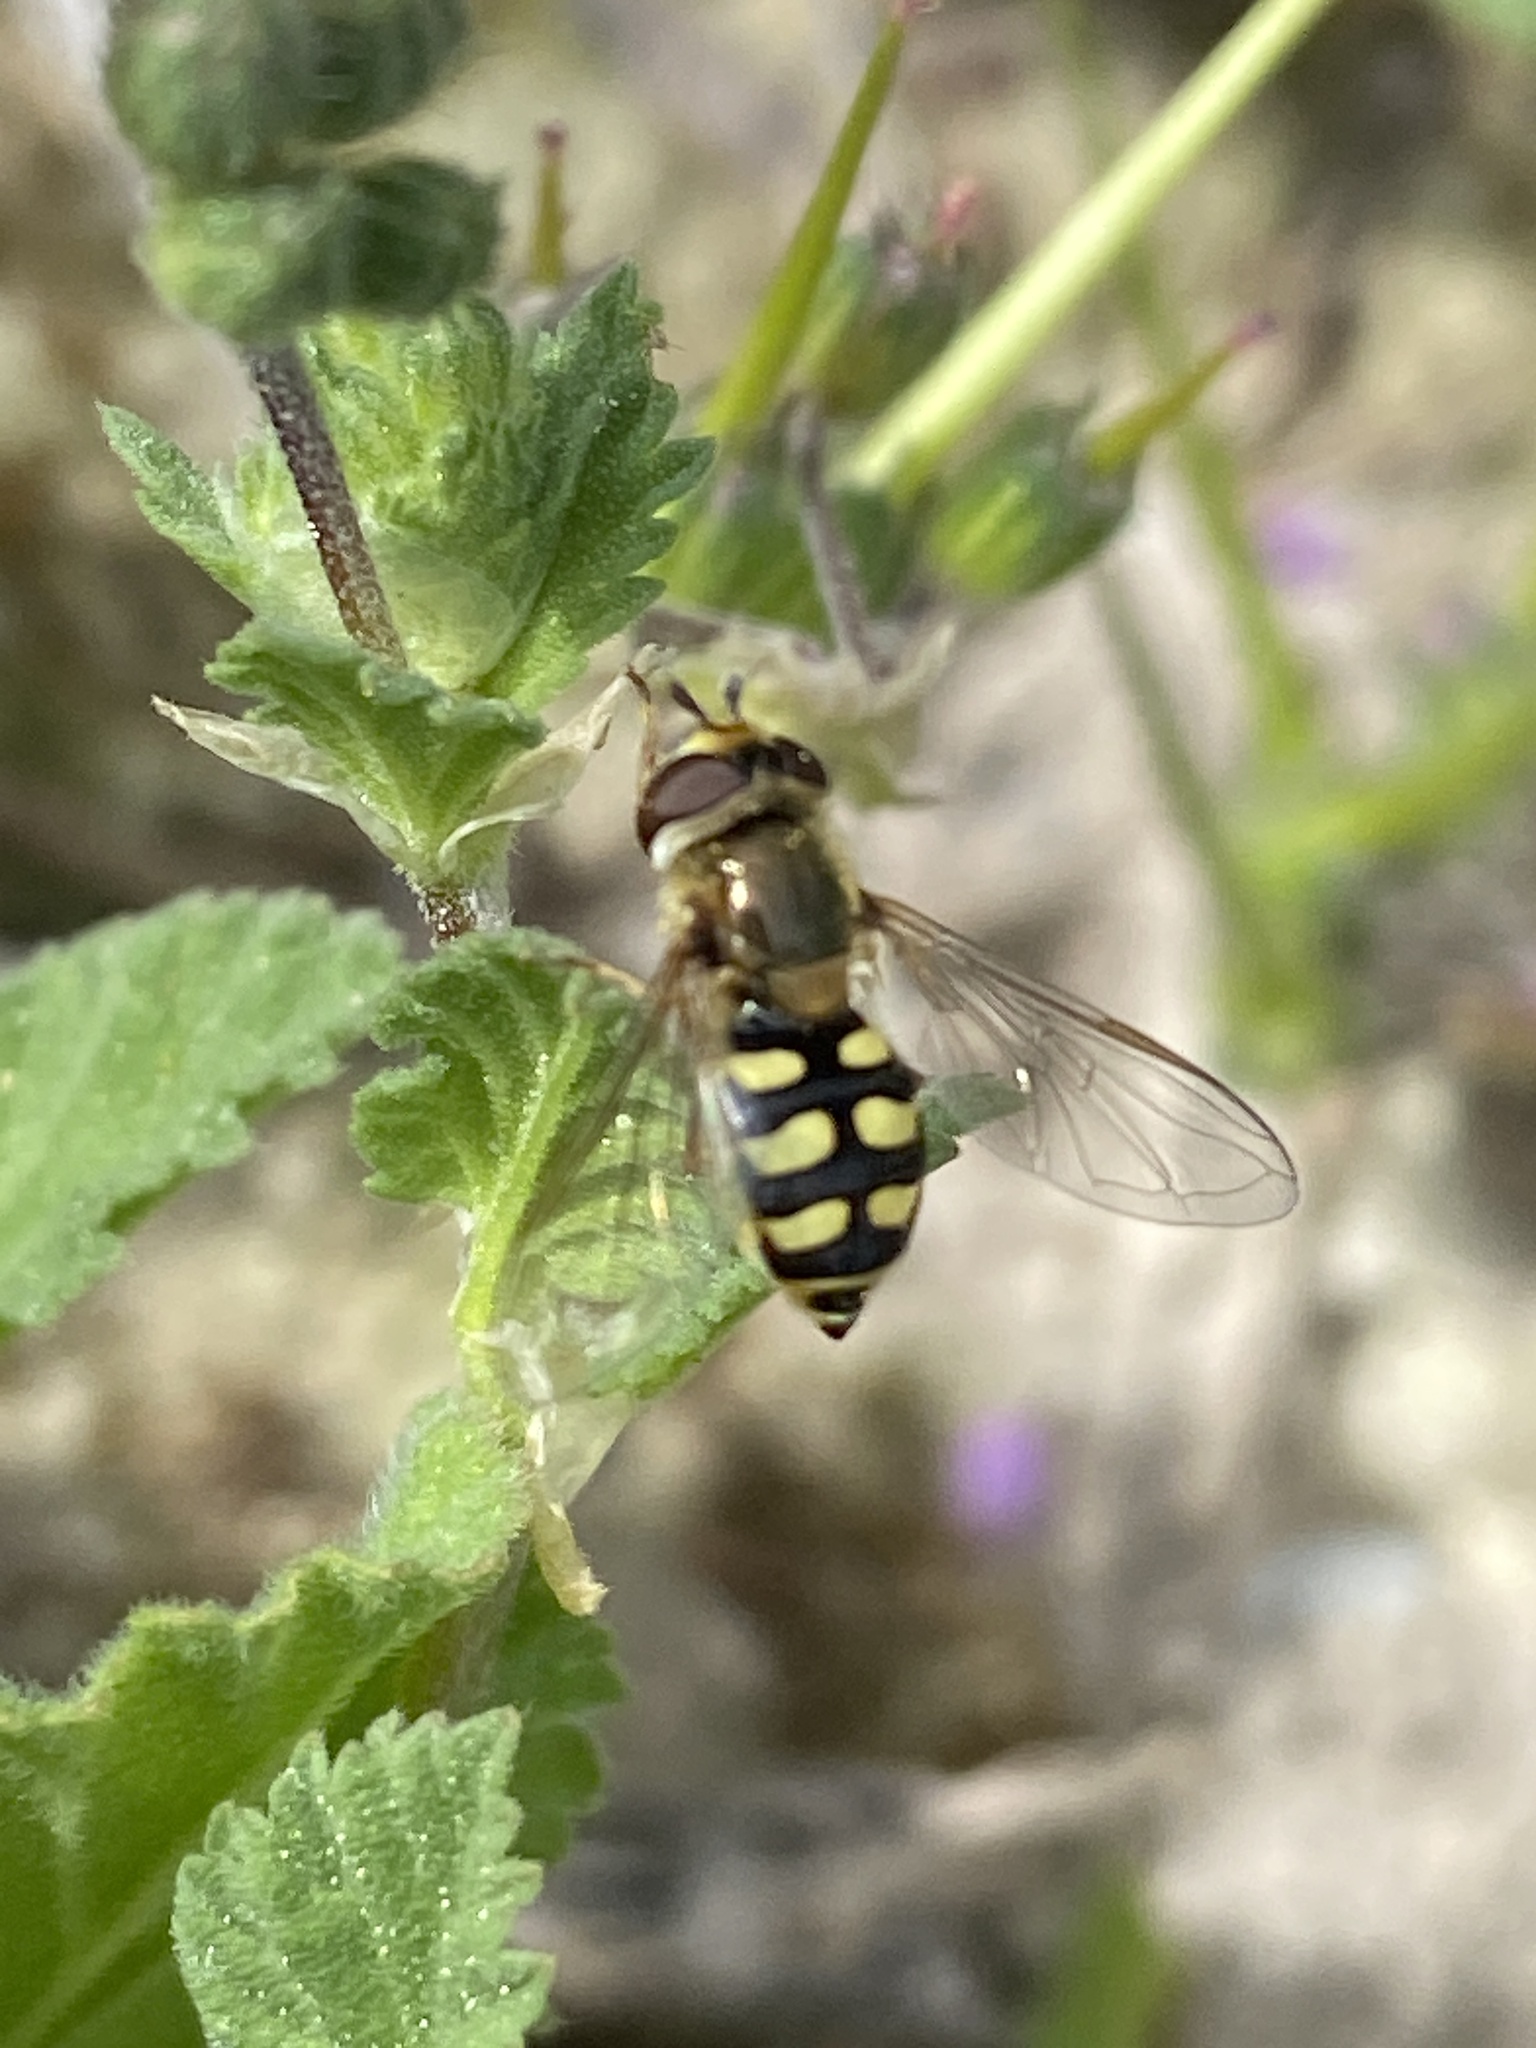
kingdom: Animalia
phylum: Arthropoda
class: Insecta
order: Diptera
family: Syrphidae
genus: Eupeodes
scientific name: Eupeodes corollae
